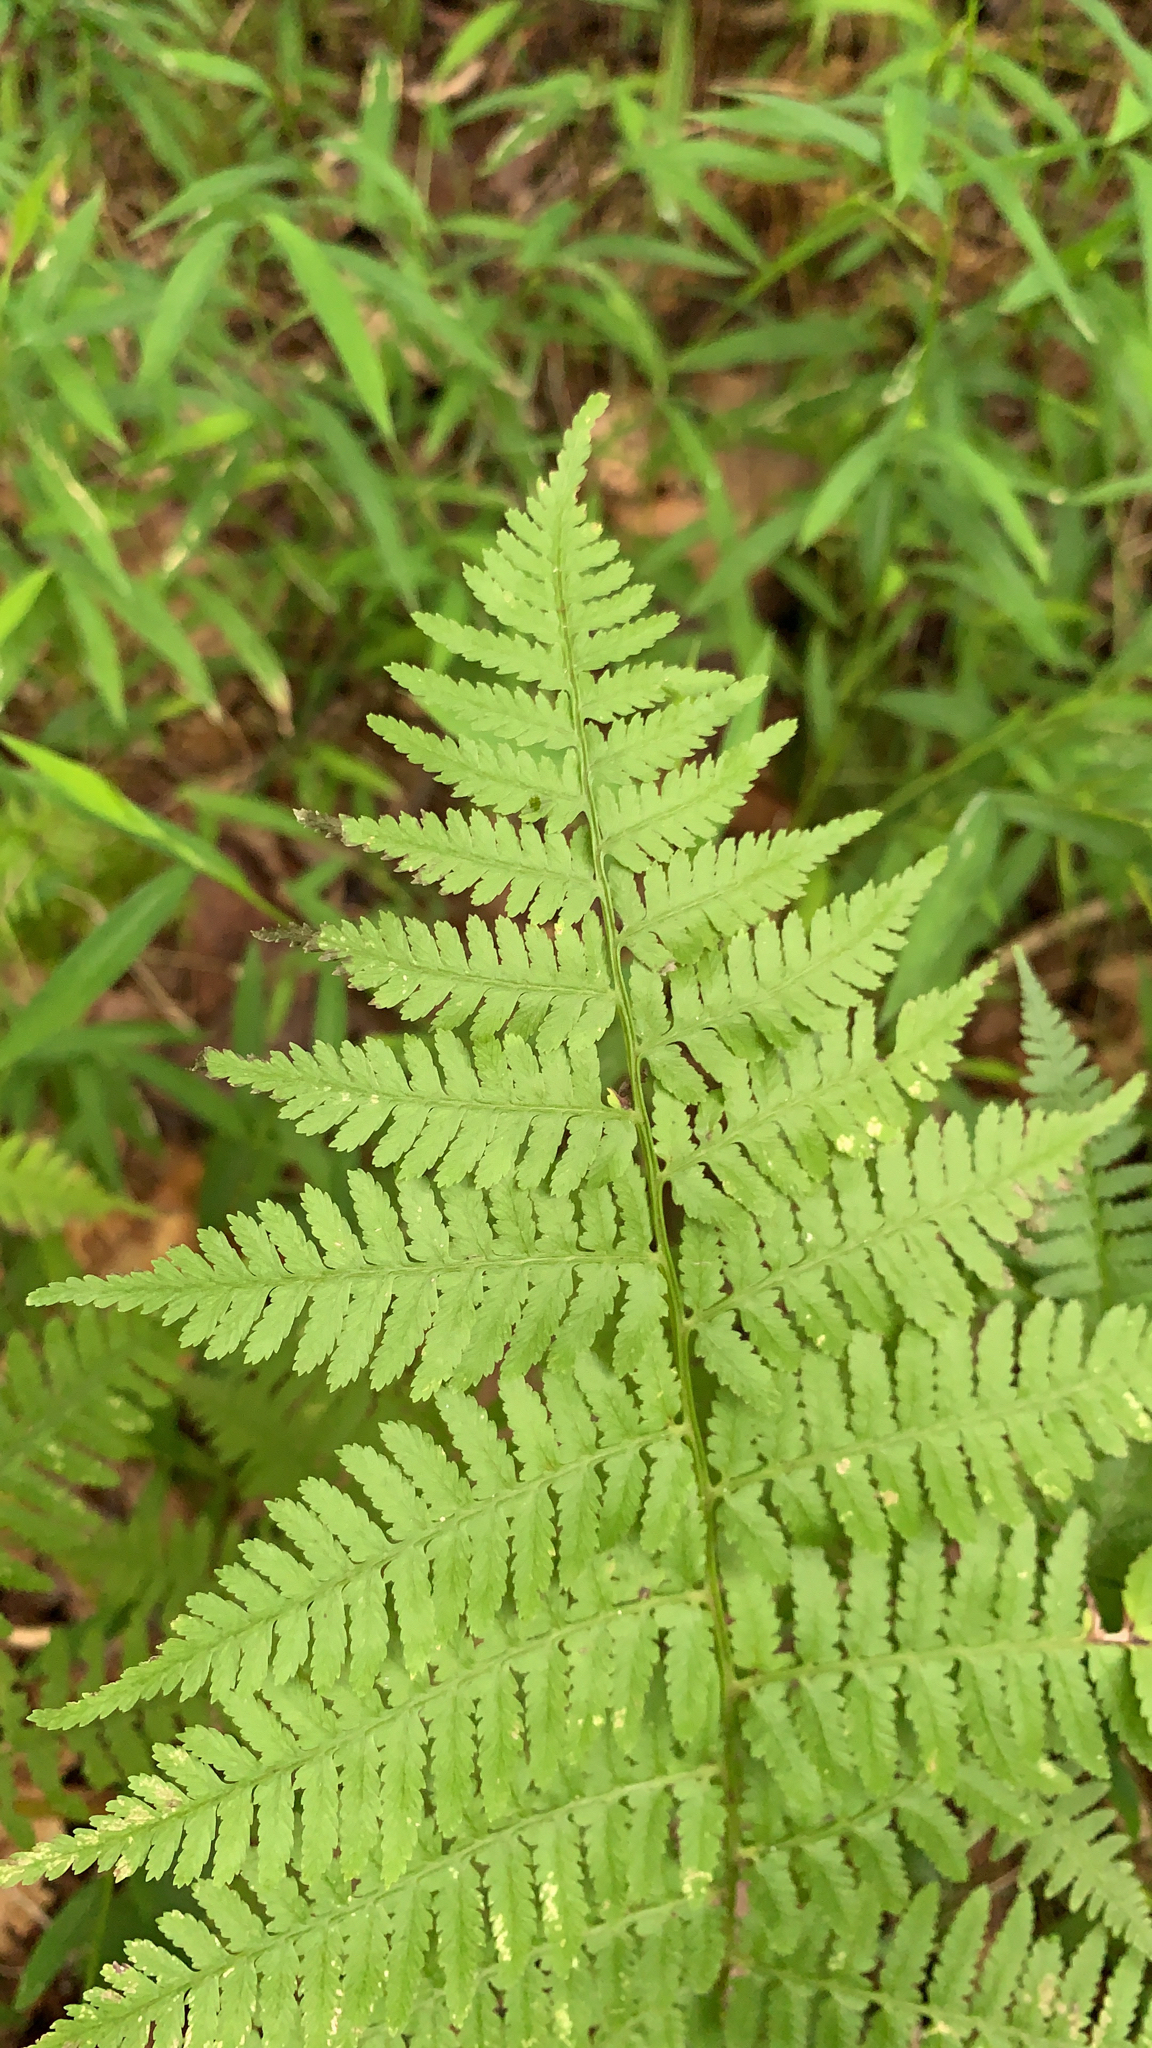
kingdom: Plantae
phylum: Tracheophyta
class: Polypodiopsida
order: Polypodiales
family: Athyriaceae
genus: Athyrium
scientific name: Athyrium asplenioides
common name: Southern lady fern
